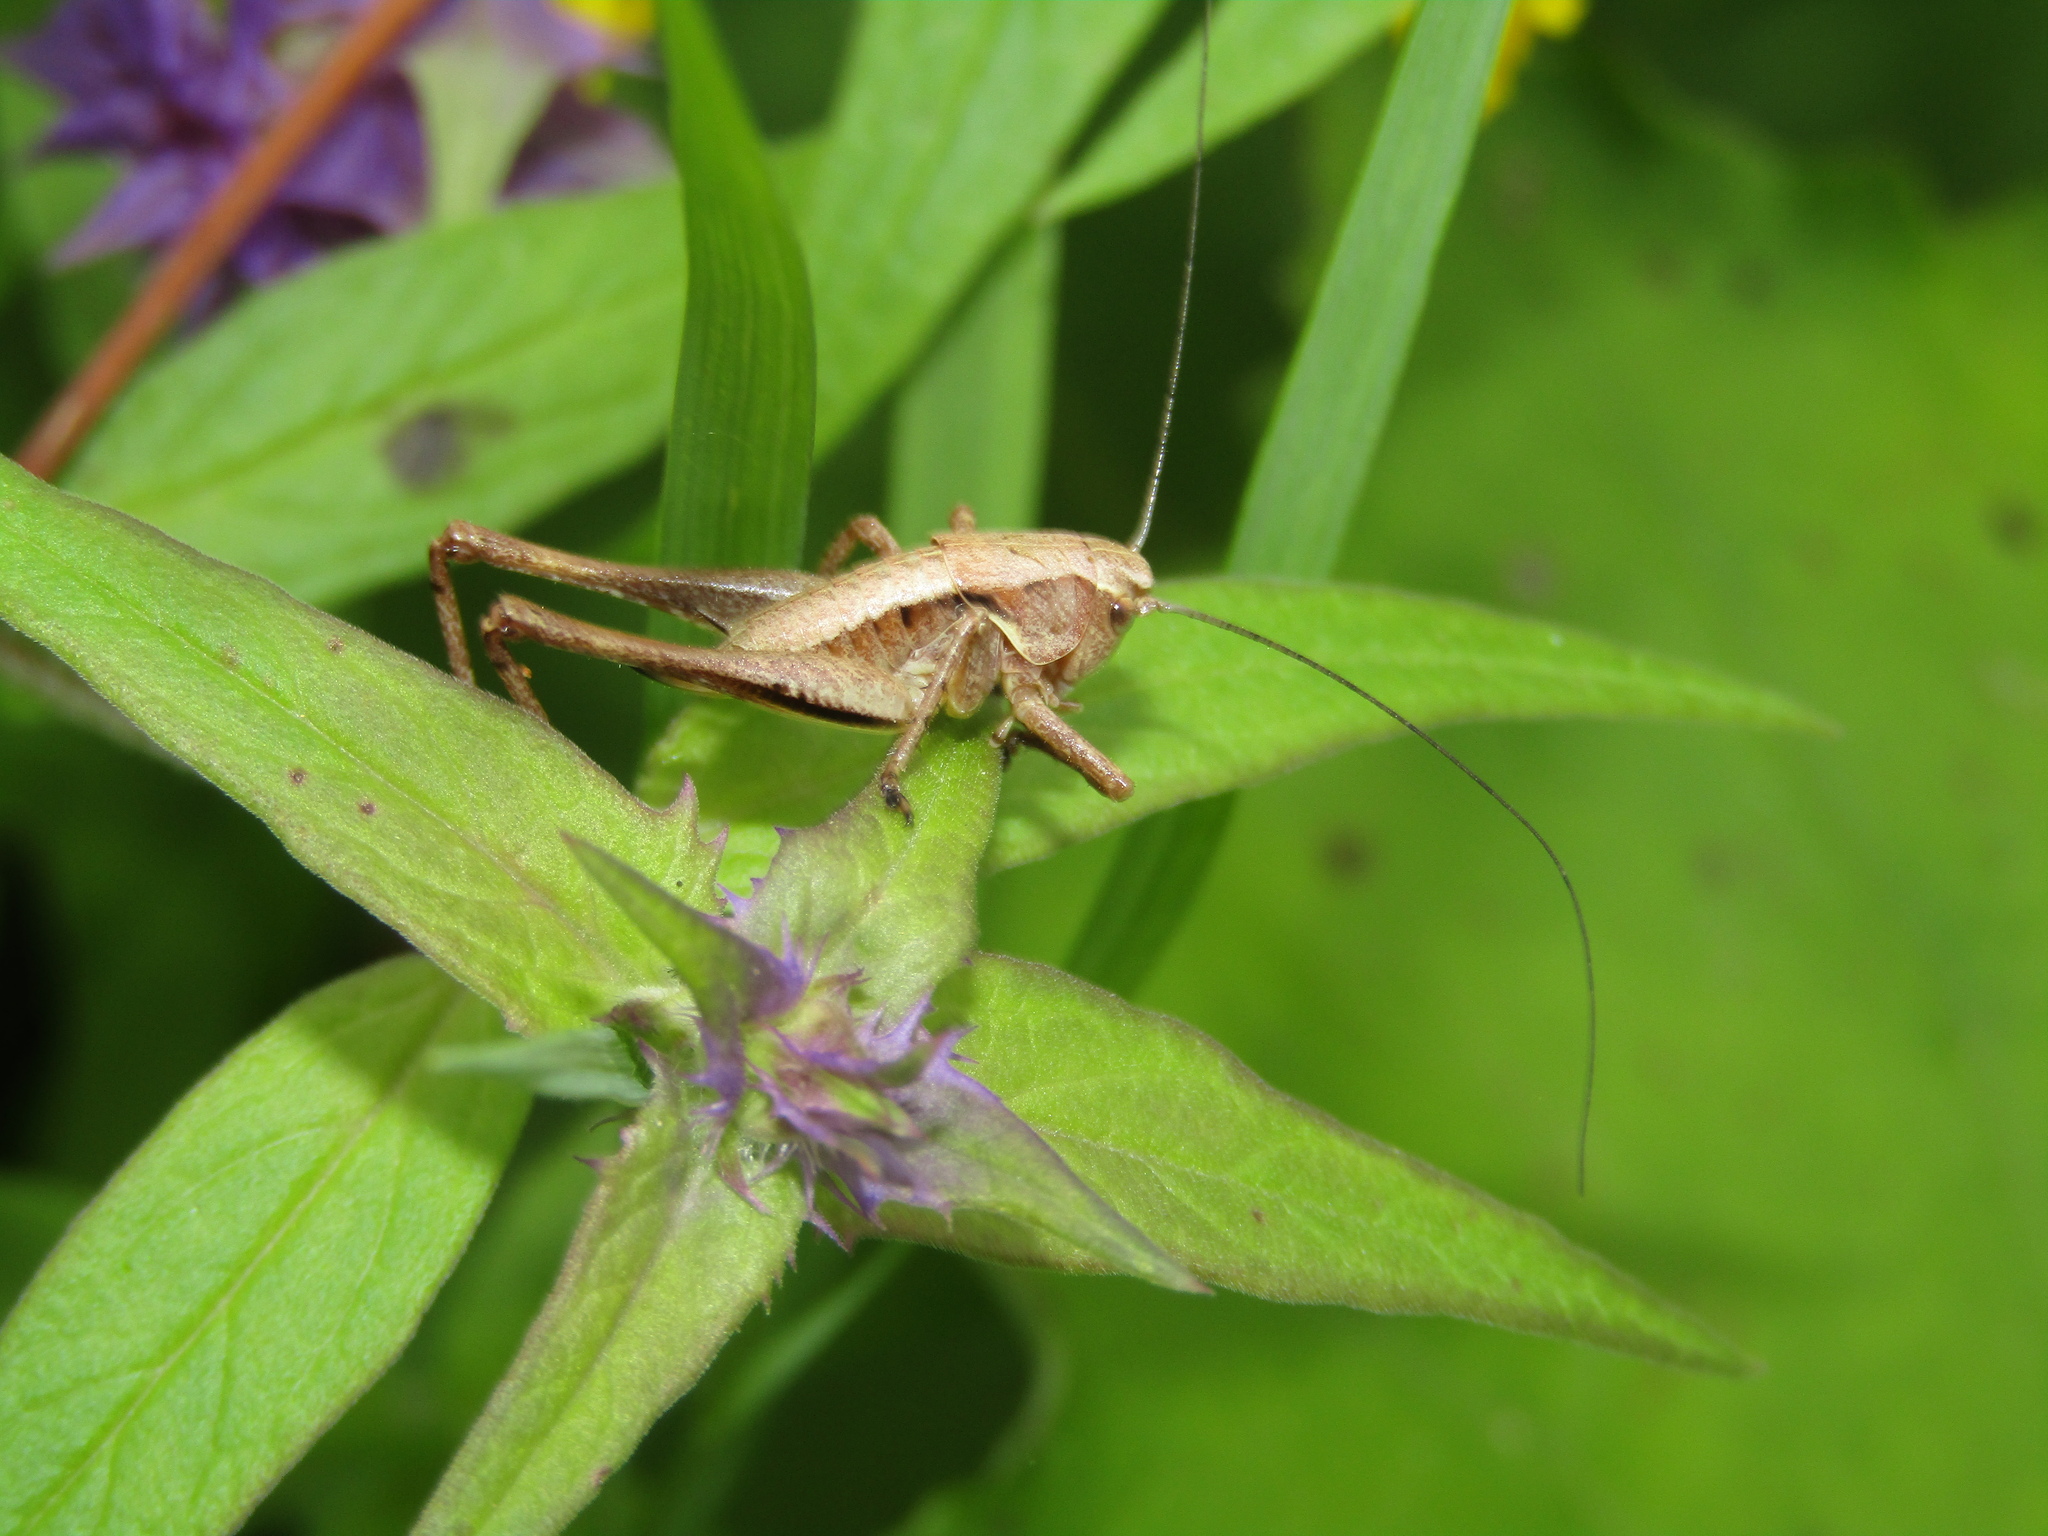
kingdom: Animalia
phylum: Arthropoda
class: Insecta
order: Orthoptera
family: Tettigoniidae
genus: Pholidoptera
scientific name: Pholidoptera griseoaptera
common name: Dark bush-cricket
